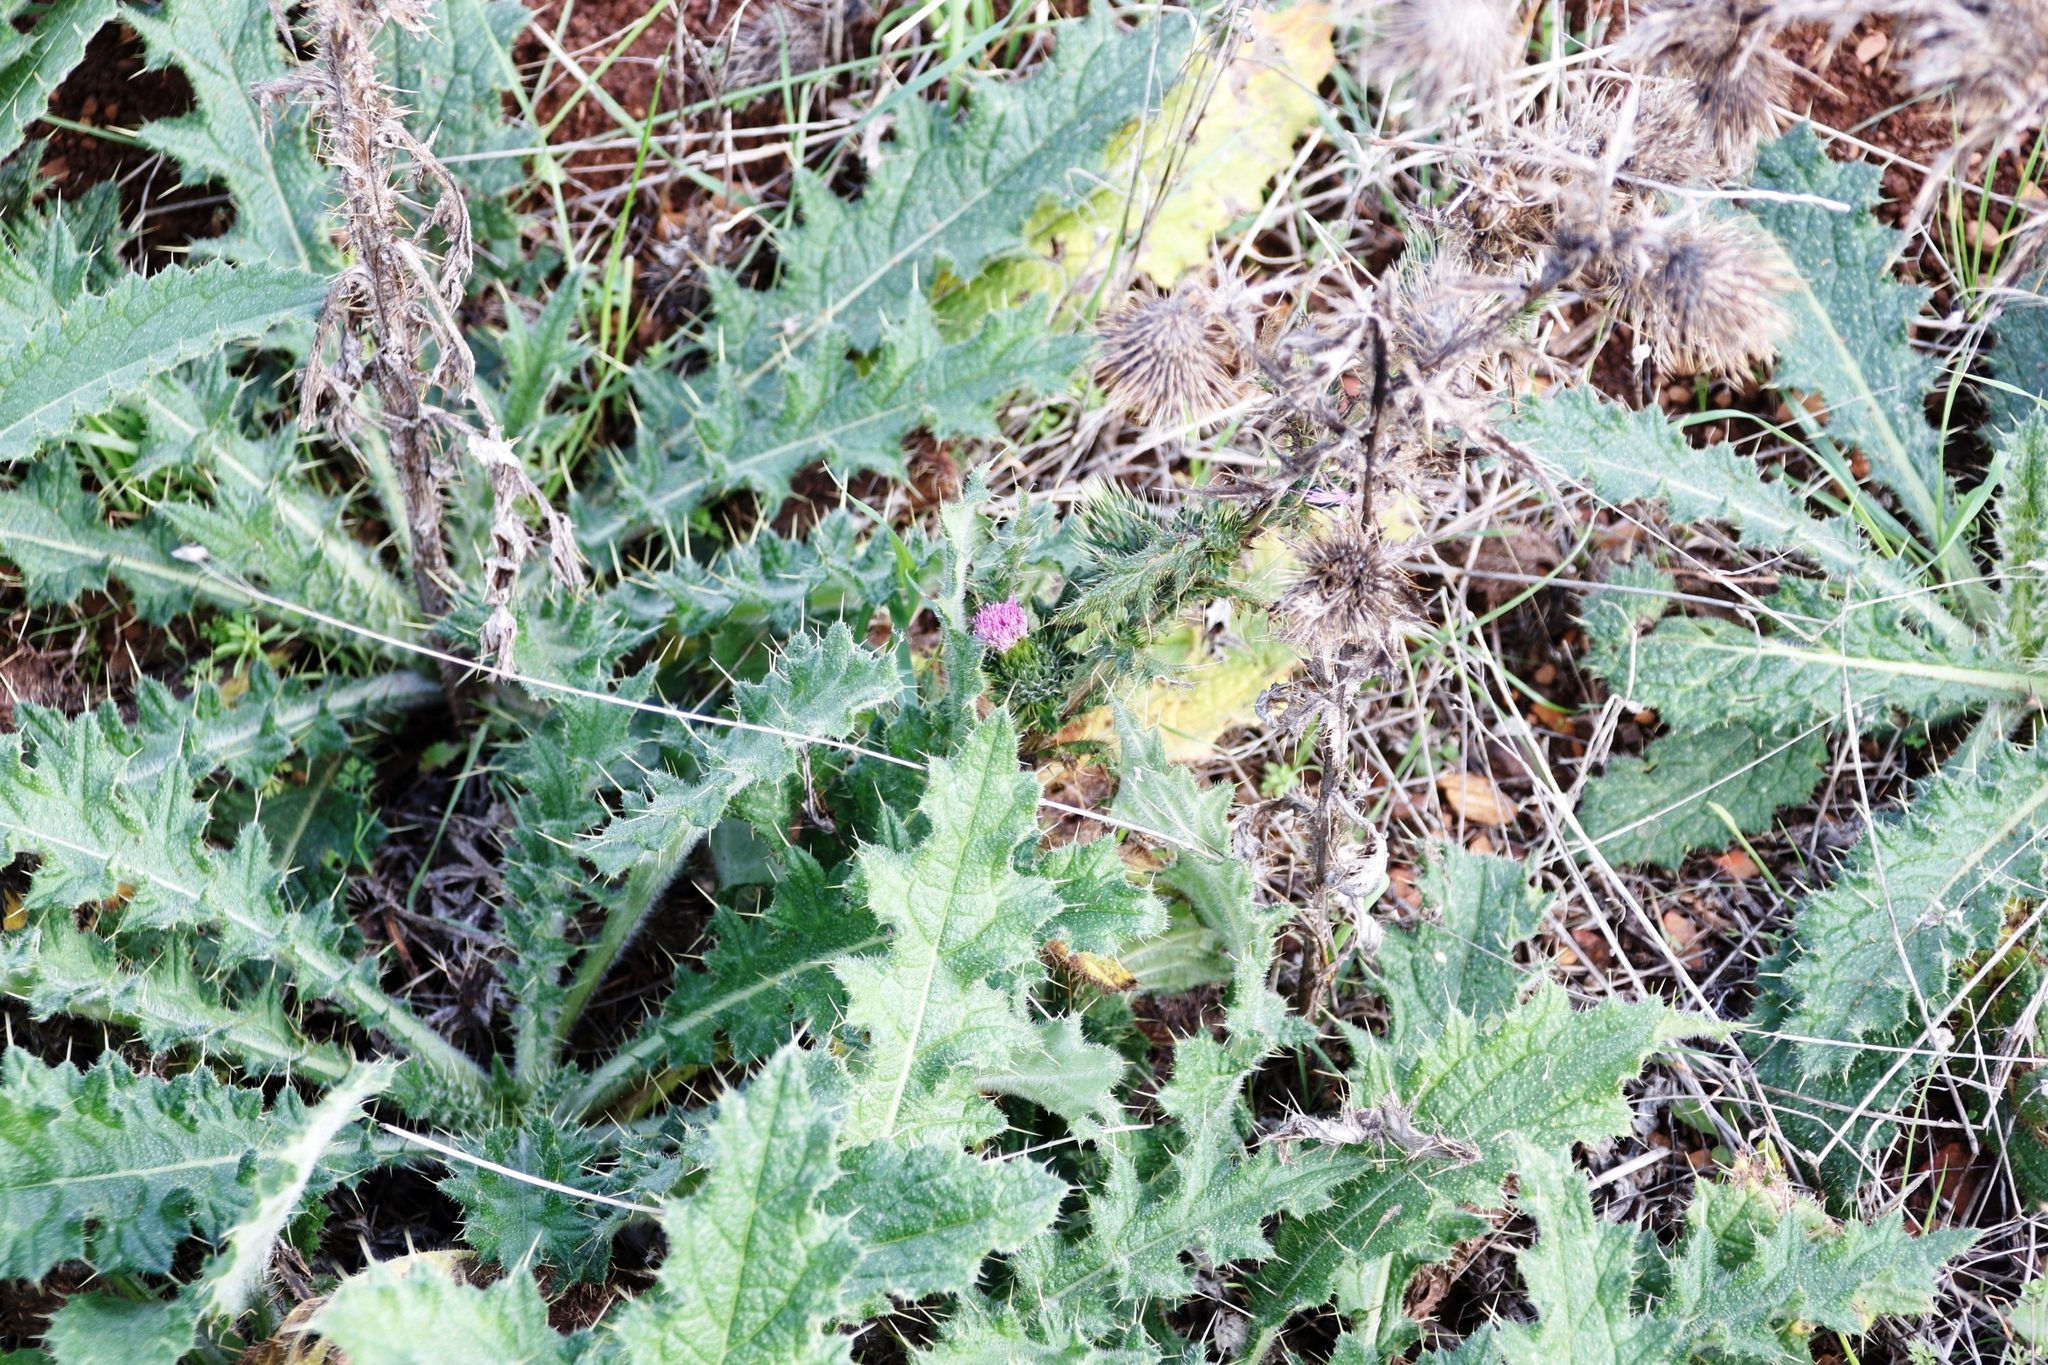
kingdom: Plantae
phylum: Tracheophyta
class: Magnoliopsida
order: Asterales
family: Asteraceae
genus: Cirsium
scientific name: Cirsium vulgare
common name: Bull thistle
